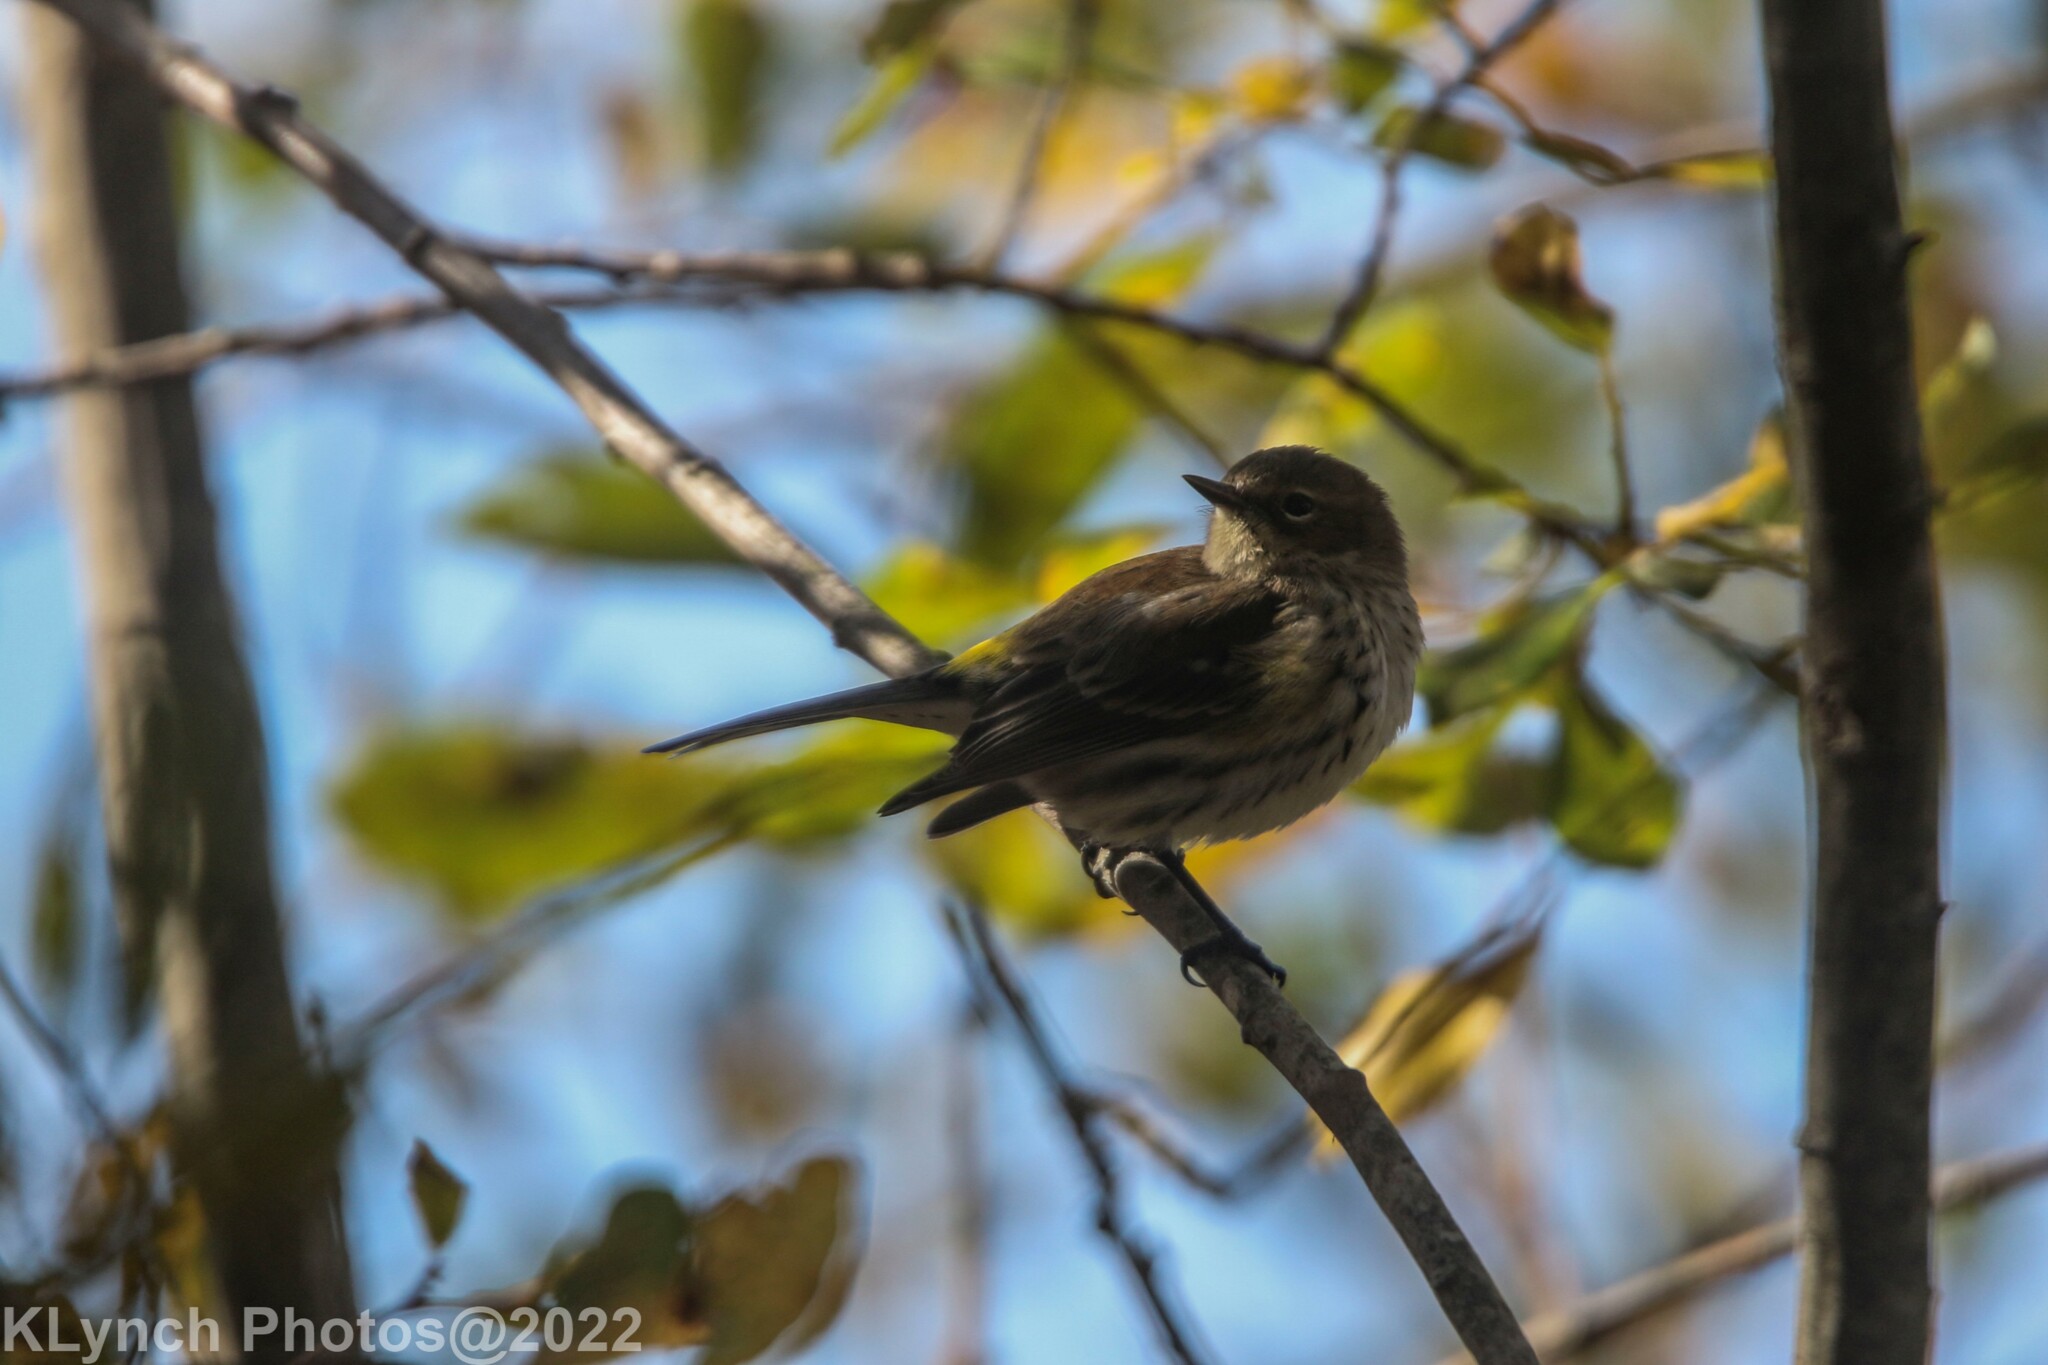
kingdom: Animalia
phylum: Chordata
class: Aves
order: Passeriformes
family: Parulidae
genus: Setophaga
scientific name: Setophaga coronata
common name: Myrtle warbler
